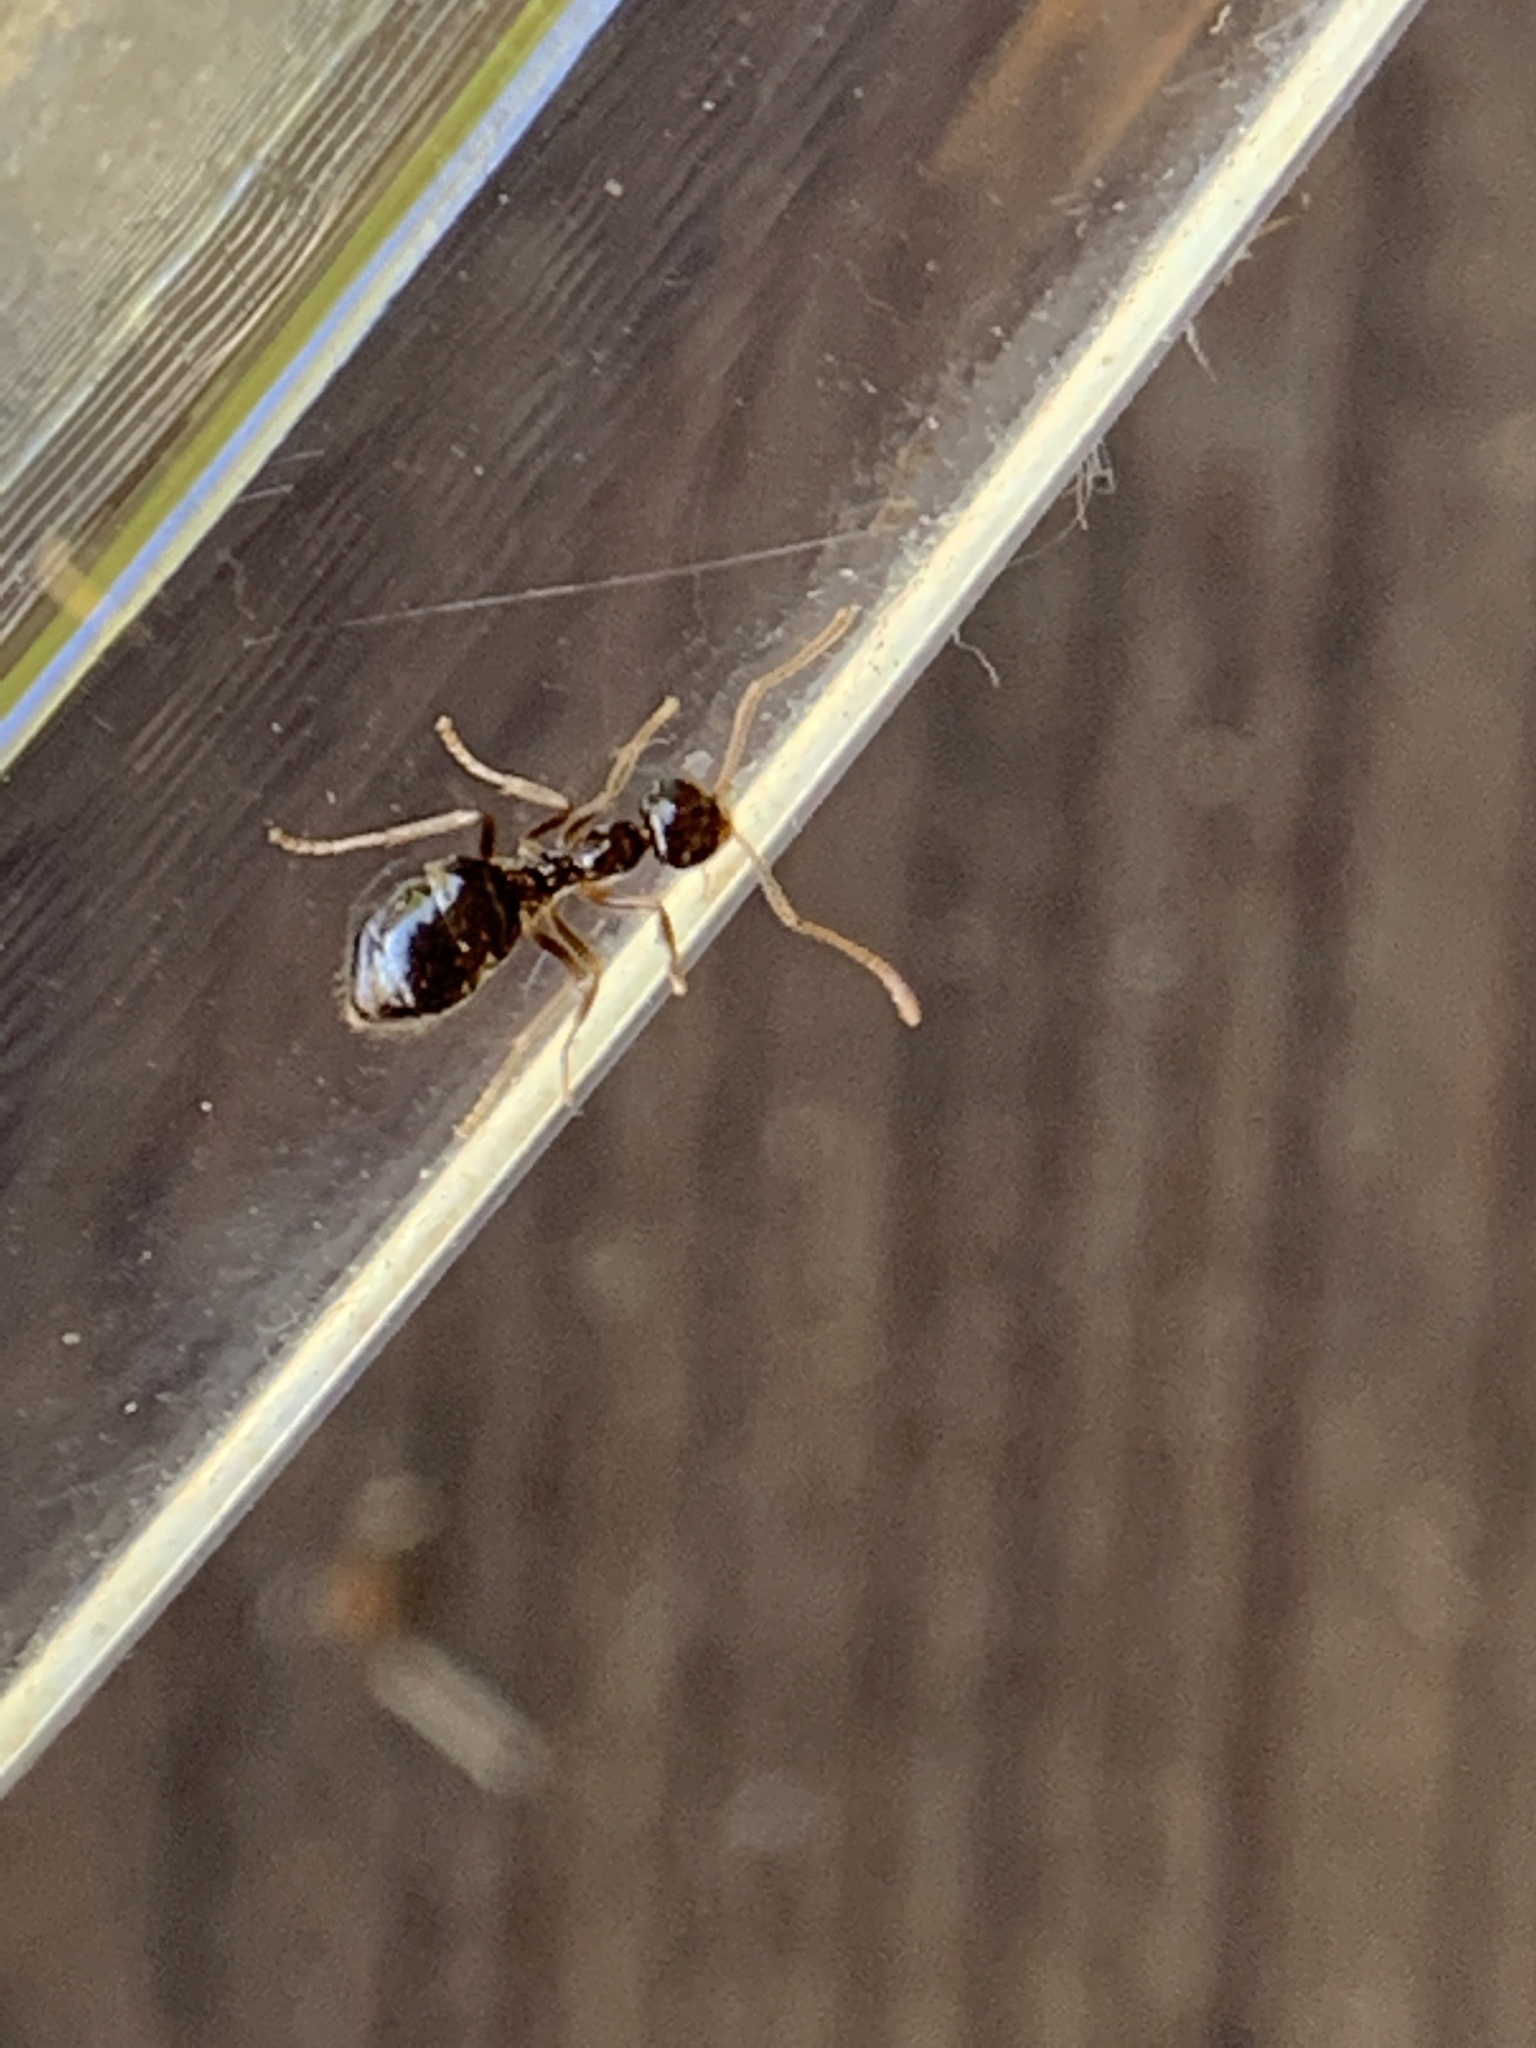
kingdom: Animalia
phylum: Arthropoda
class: Insecta
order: Hymenoptera
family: Formicidae
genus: Prenolepis
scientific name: Prenolepis imparis
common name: Small honey ant
